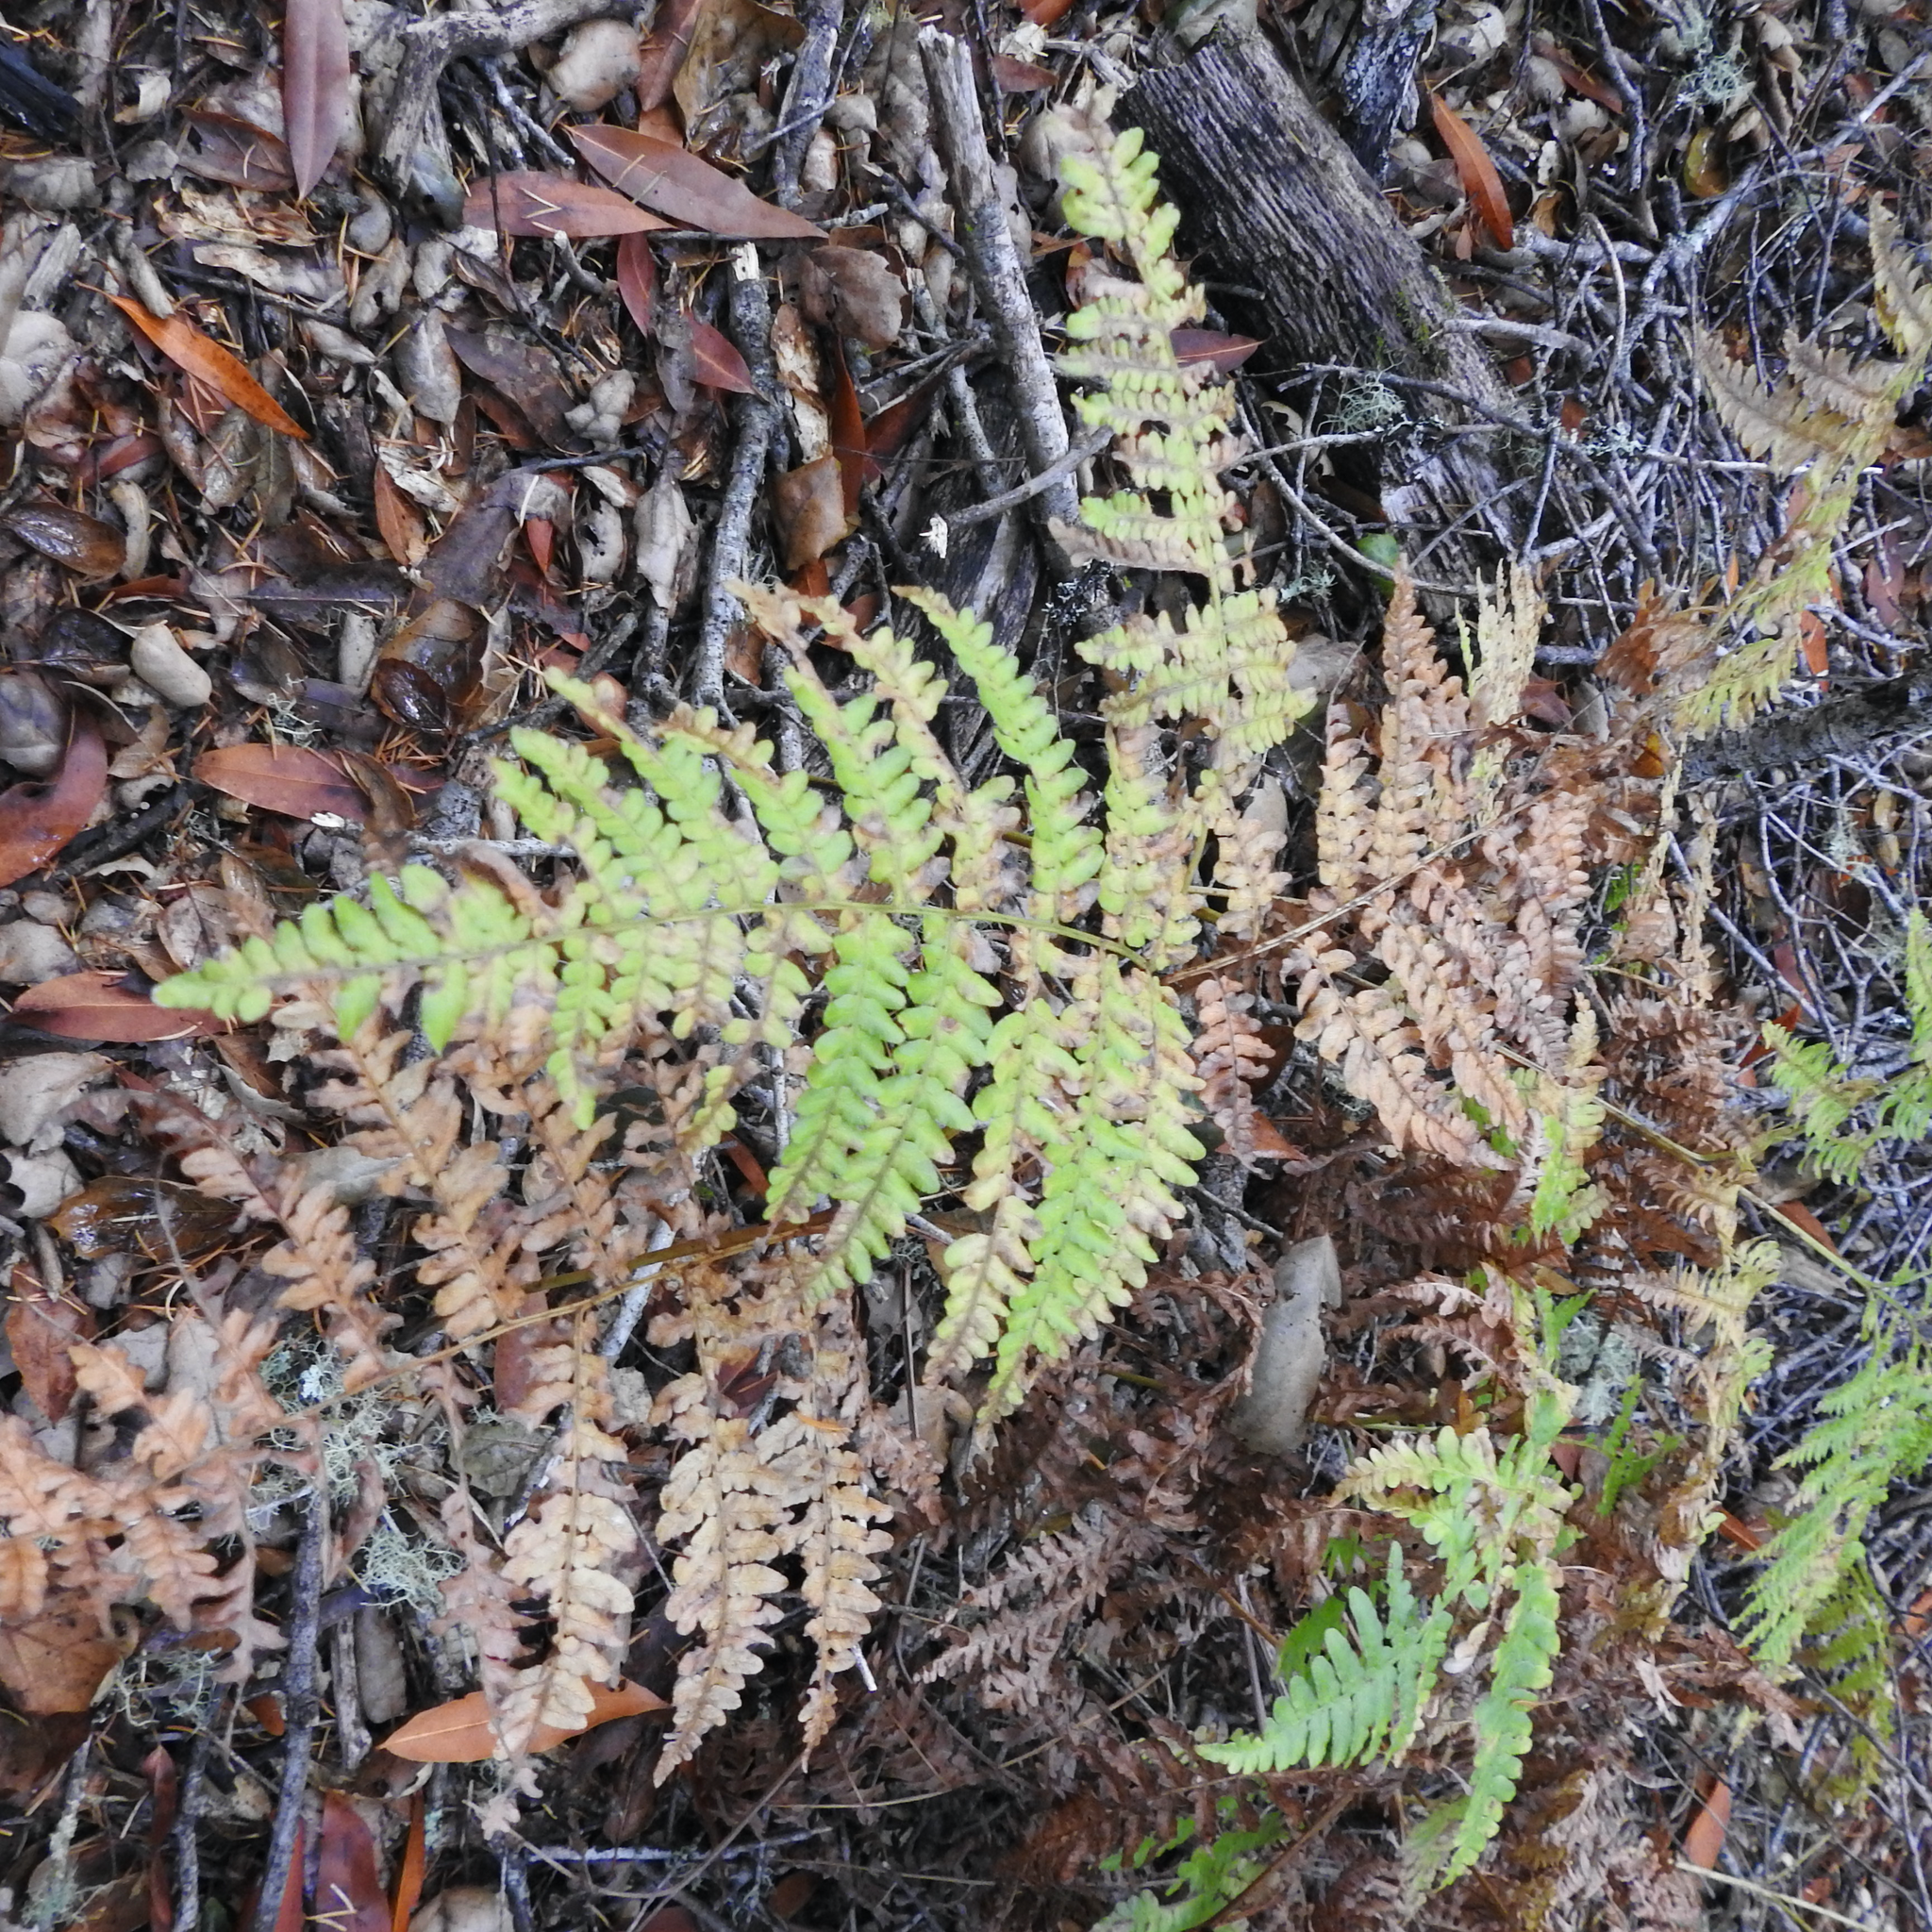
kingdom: Plantae
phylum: Tracheophyta
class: Polypodiopsida
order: Polypodiales
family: Dennstaedtiaceae
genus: Pteridium
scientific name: Pteridium aquilinum
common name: Bracken
